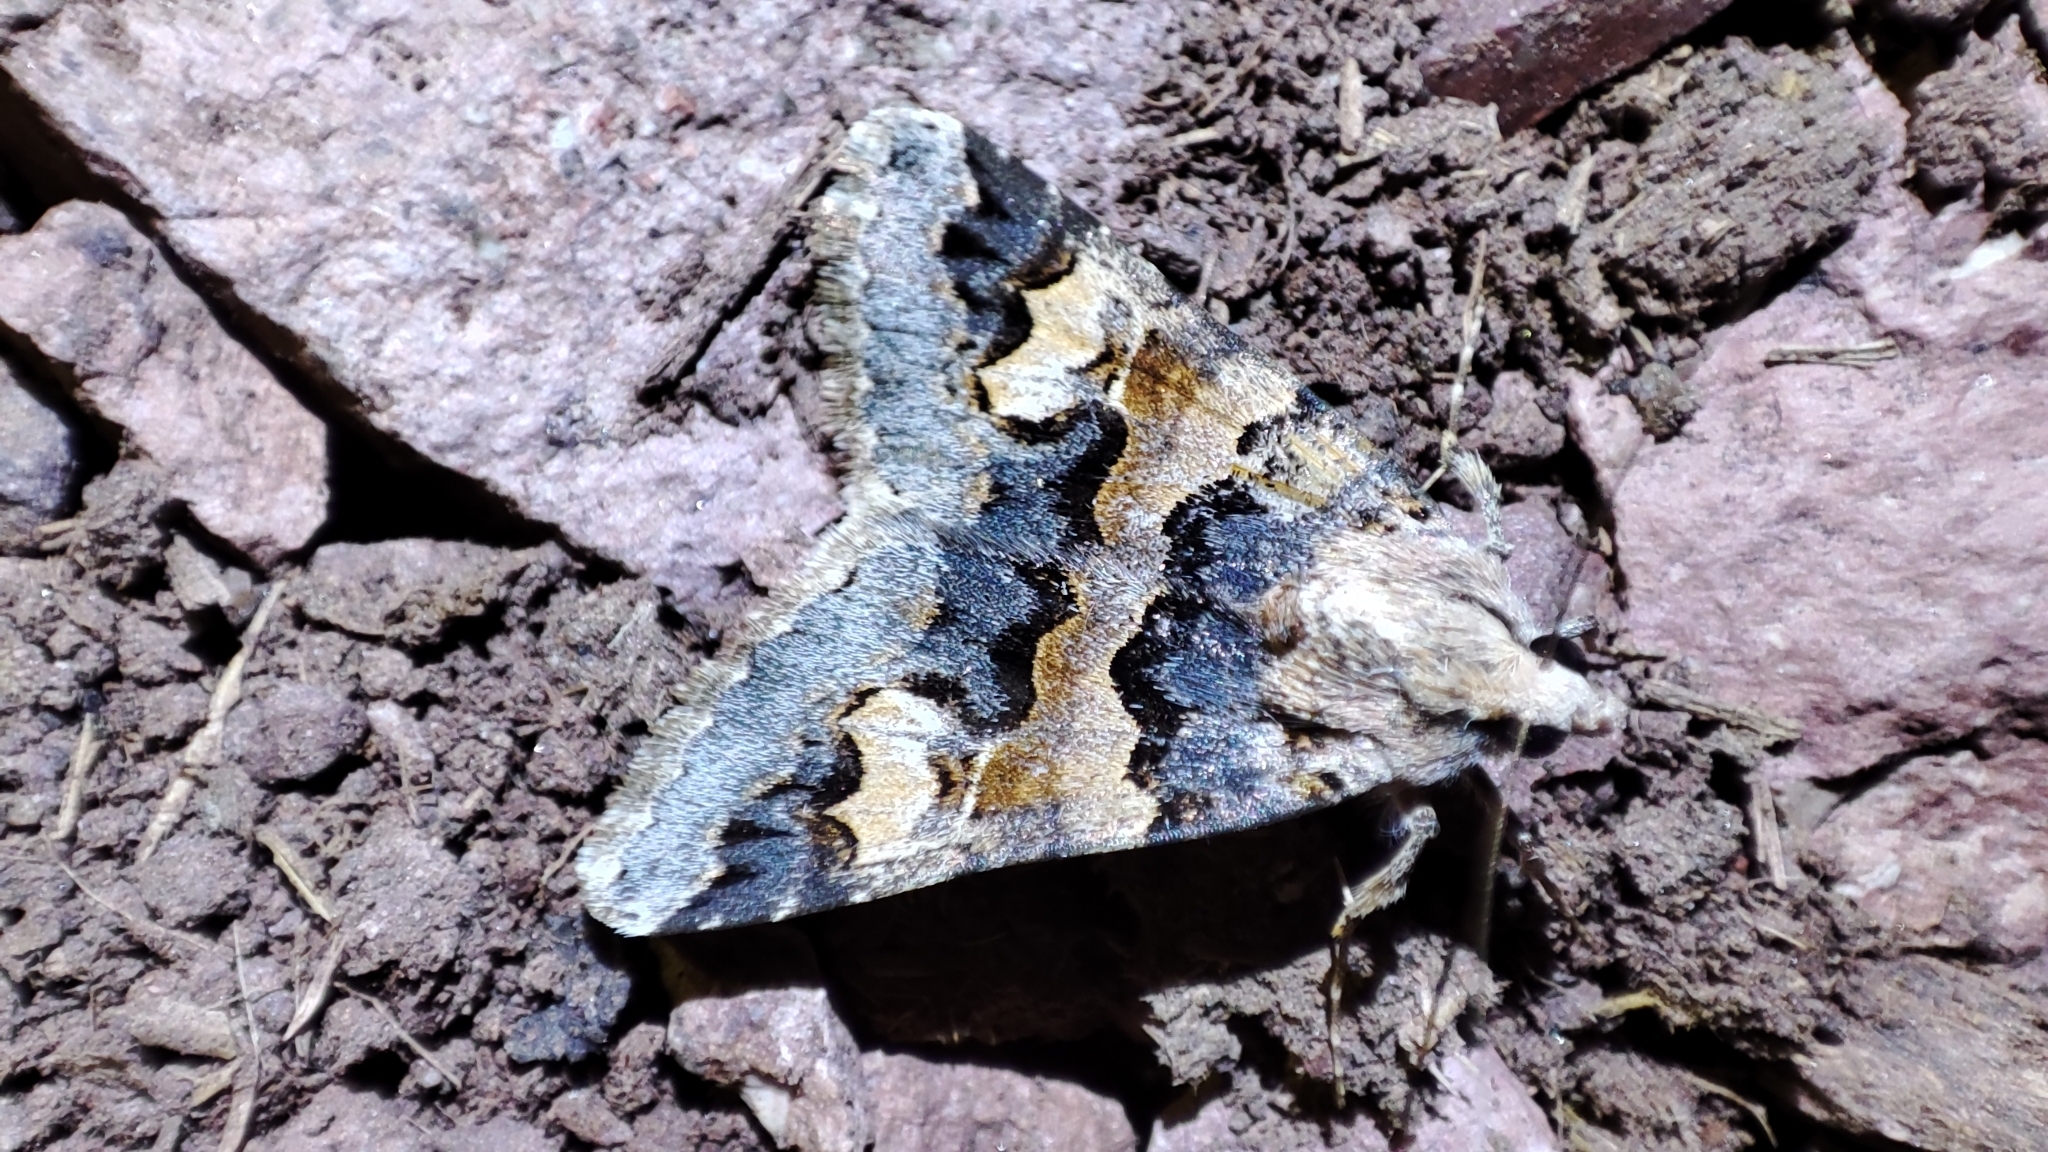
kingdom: Animalia
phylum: Arthropoda
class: Insecta
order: Lepidoptera
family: Erebidae
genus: Drasteria
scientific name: Drasteria saisani
